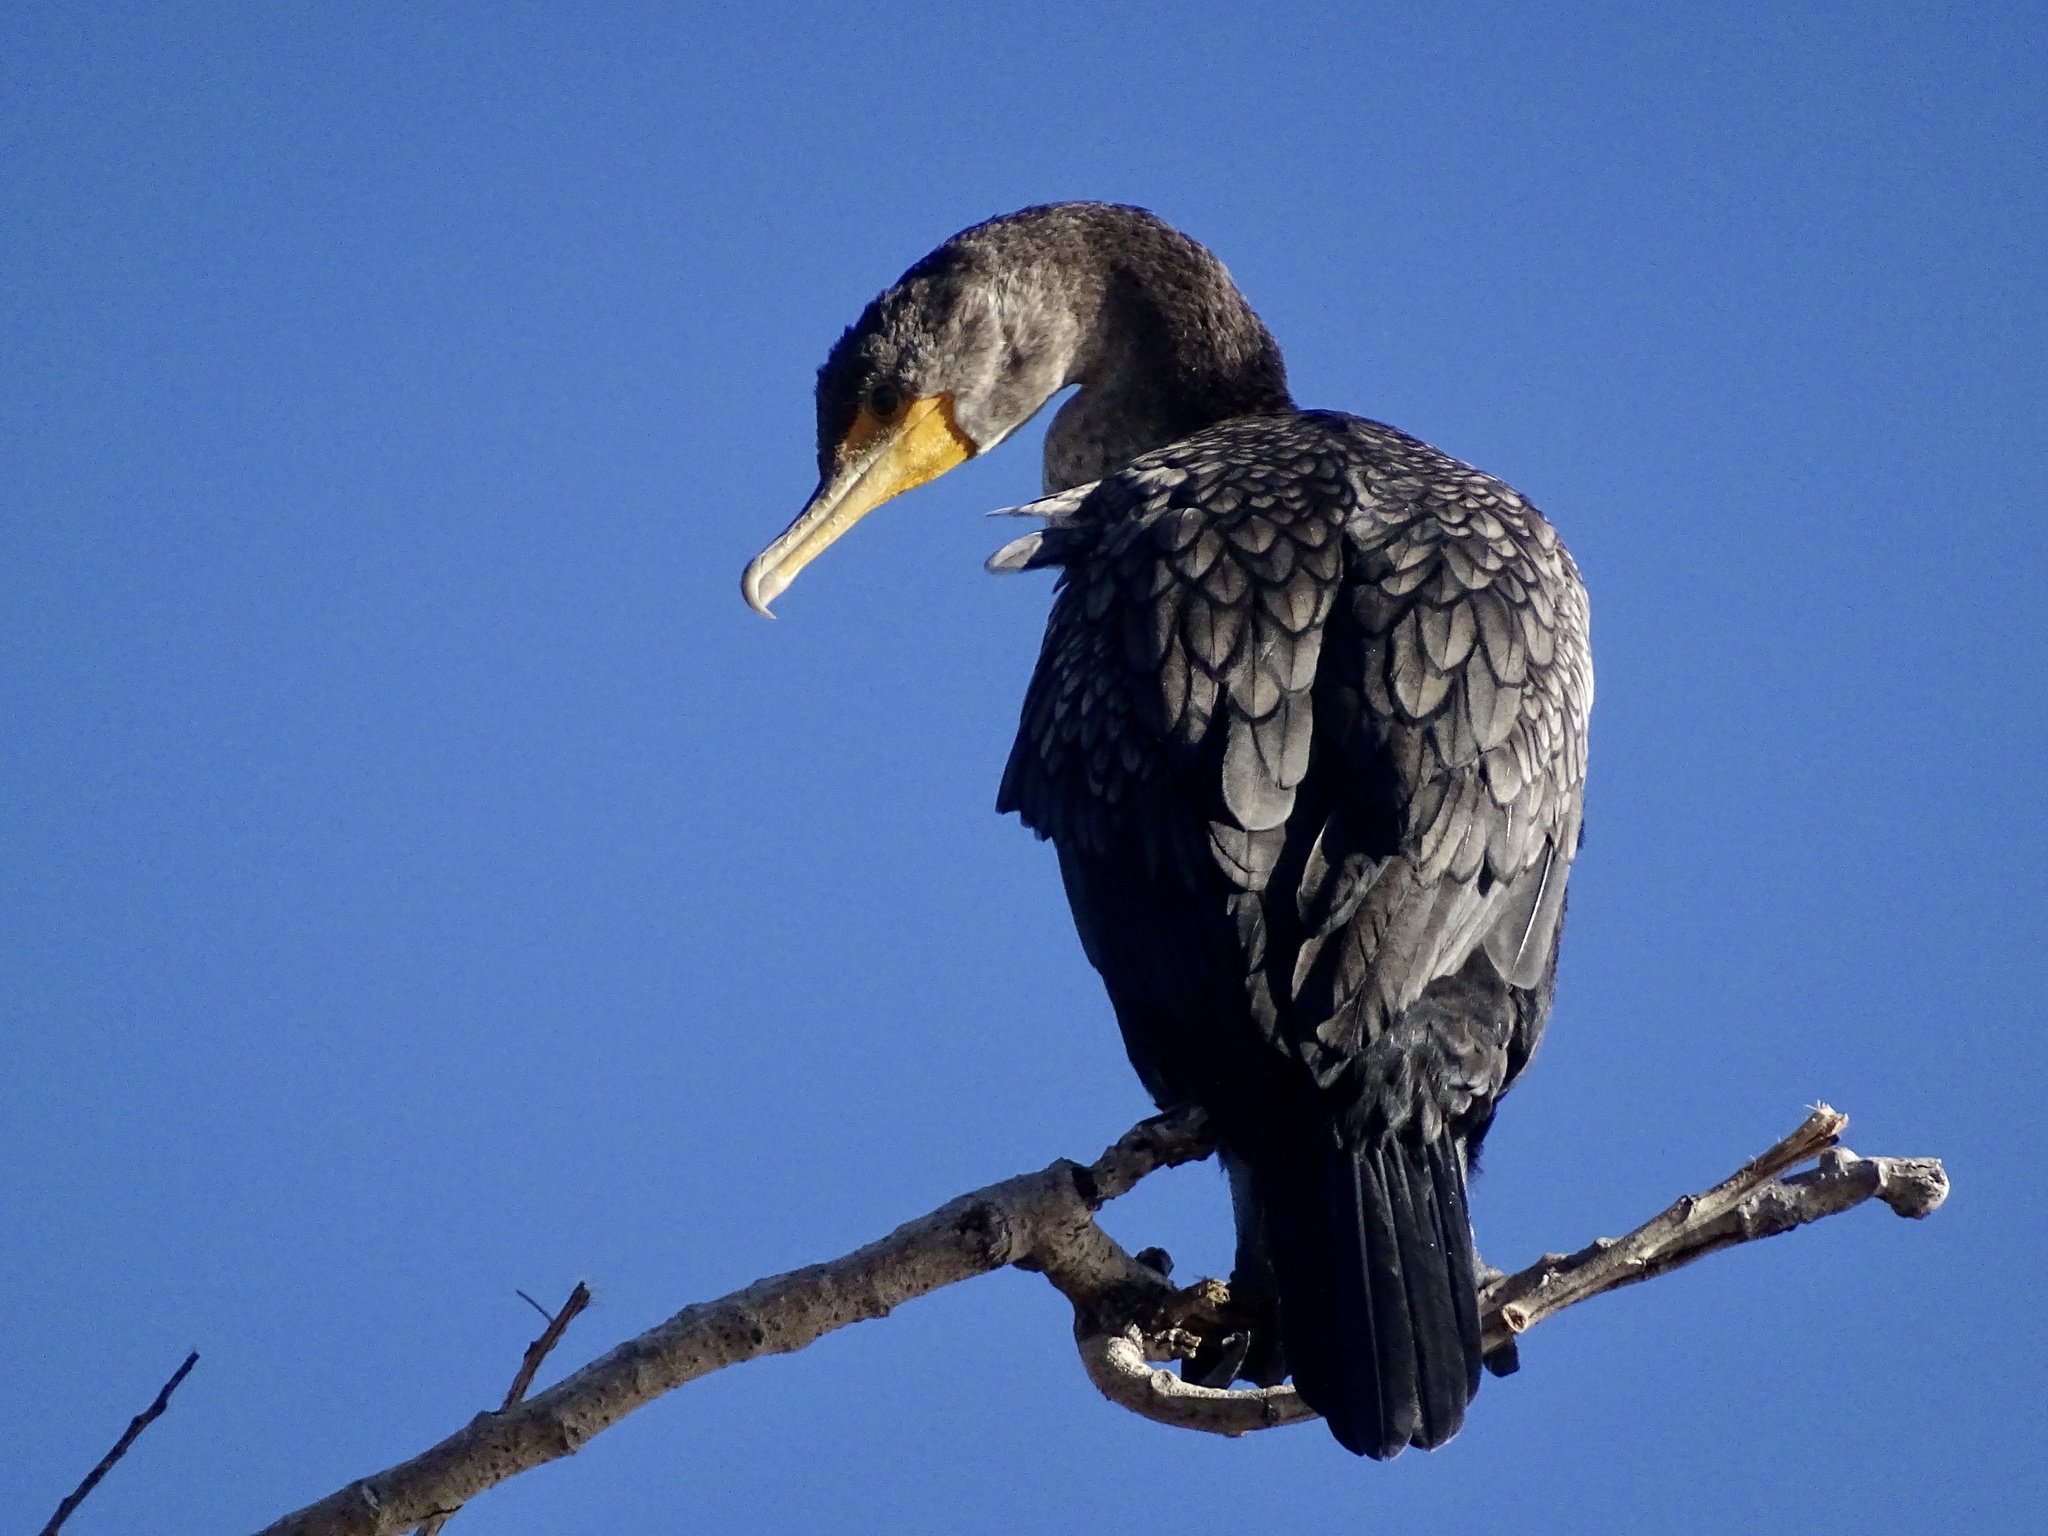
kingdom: Animalia
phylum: Chordata
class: Aves
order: Suliformes
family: Phalacrocoracidae
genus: Phalacrocorax
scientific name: Phalacrocorax auritus
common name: Double-crested cormorant
